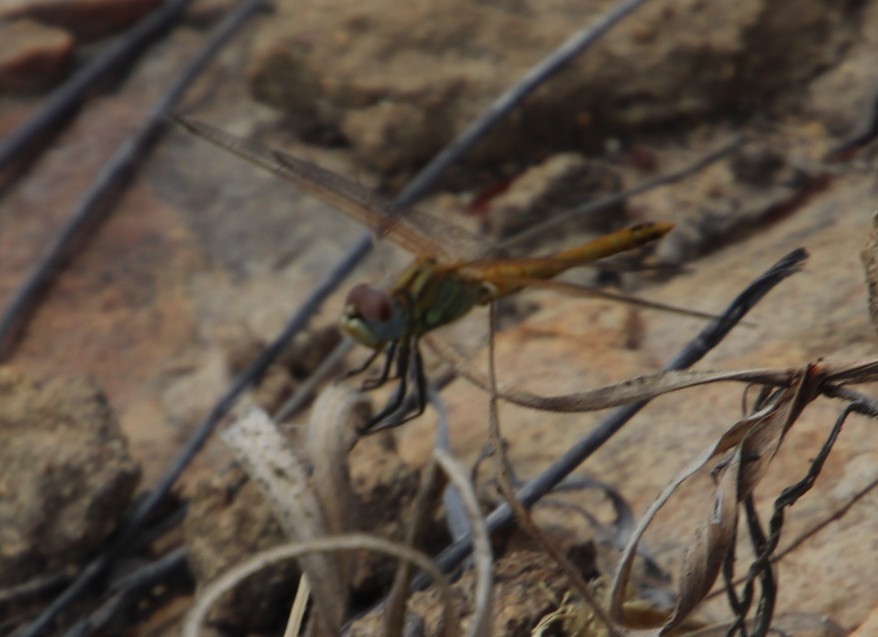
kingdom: Animalia
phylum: Arthropoda
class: Insecta
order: Odonata
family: Libellulidae
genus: Sympetrum
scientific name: Sympetrum fonscolombii
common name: Red-veined darter
